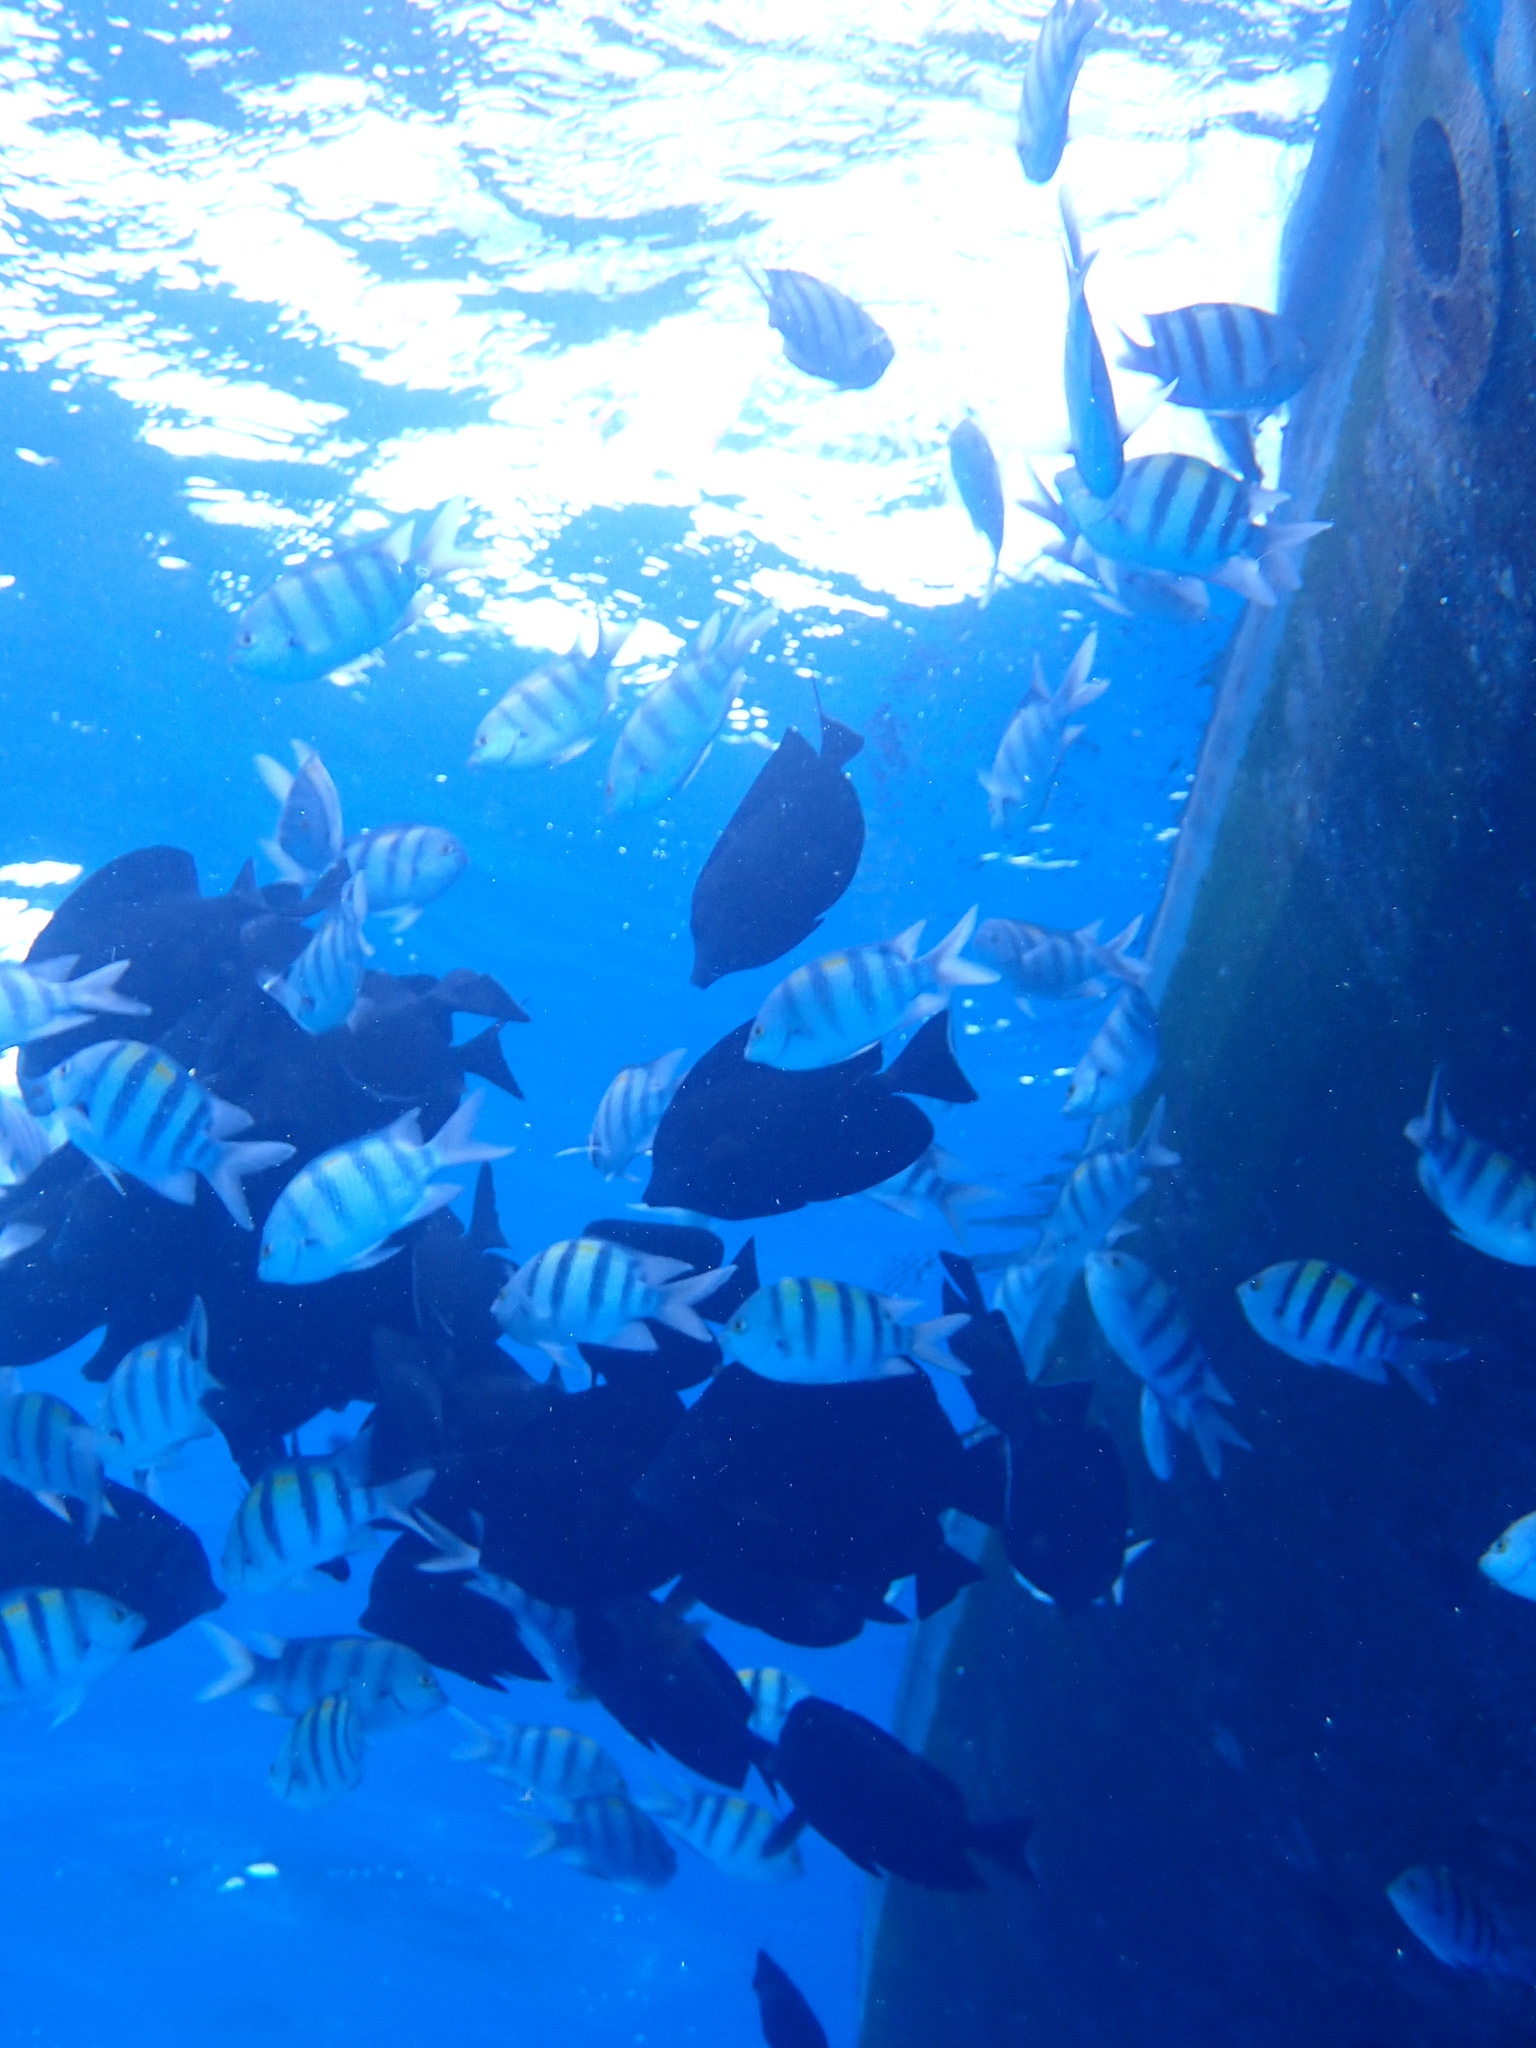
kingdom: Animalia
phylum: Chordata
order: Perciformes
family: Pomacentridae
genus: Abudefduf
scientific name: Abudefduf vaigiensis
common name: Indo-pacific sergeant
